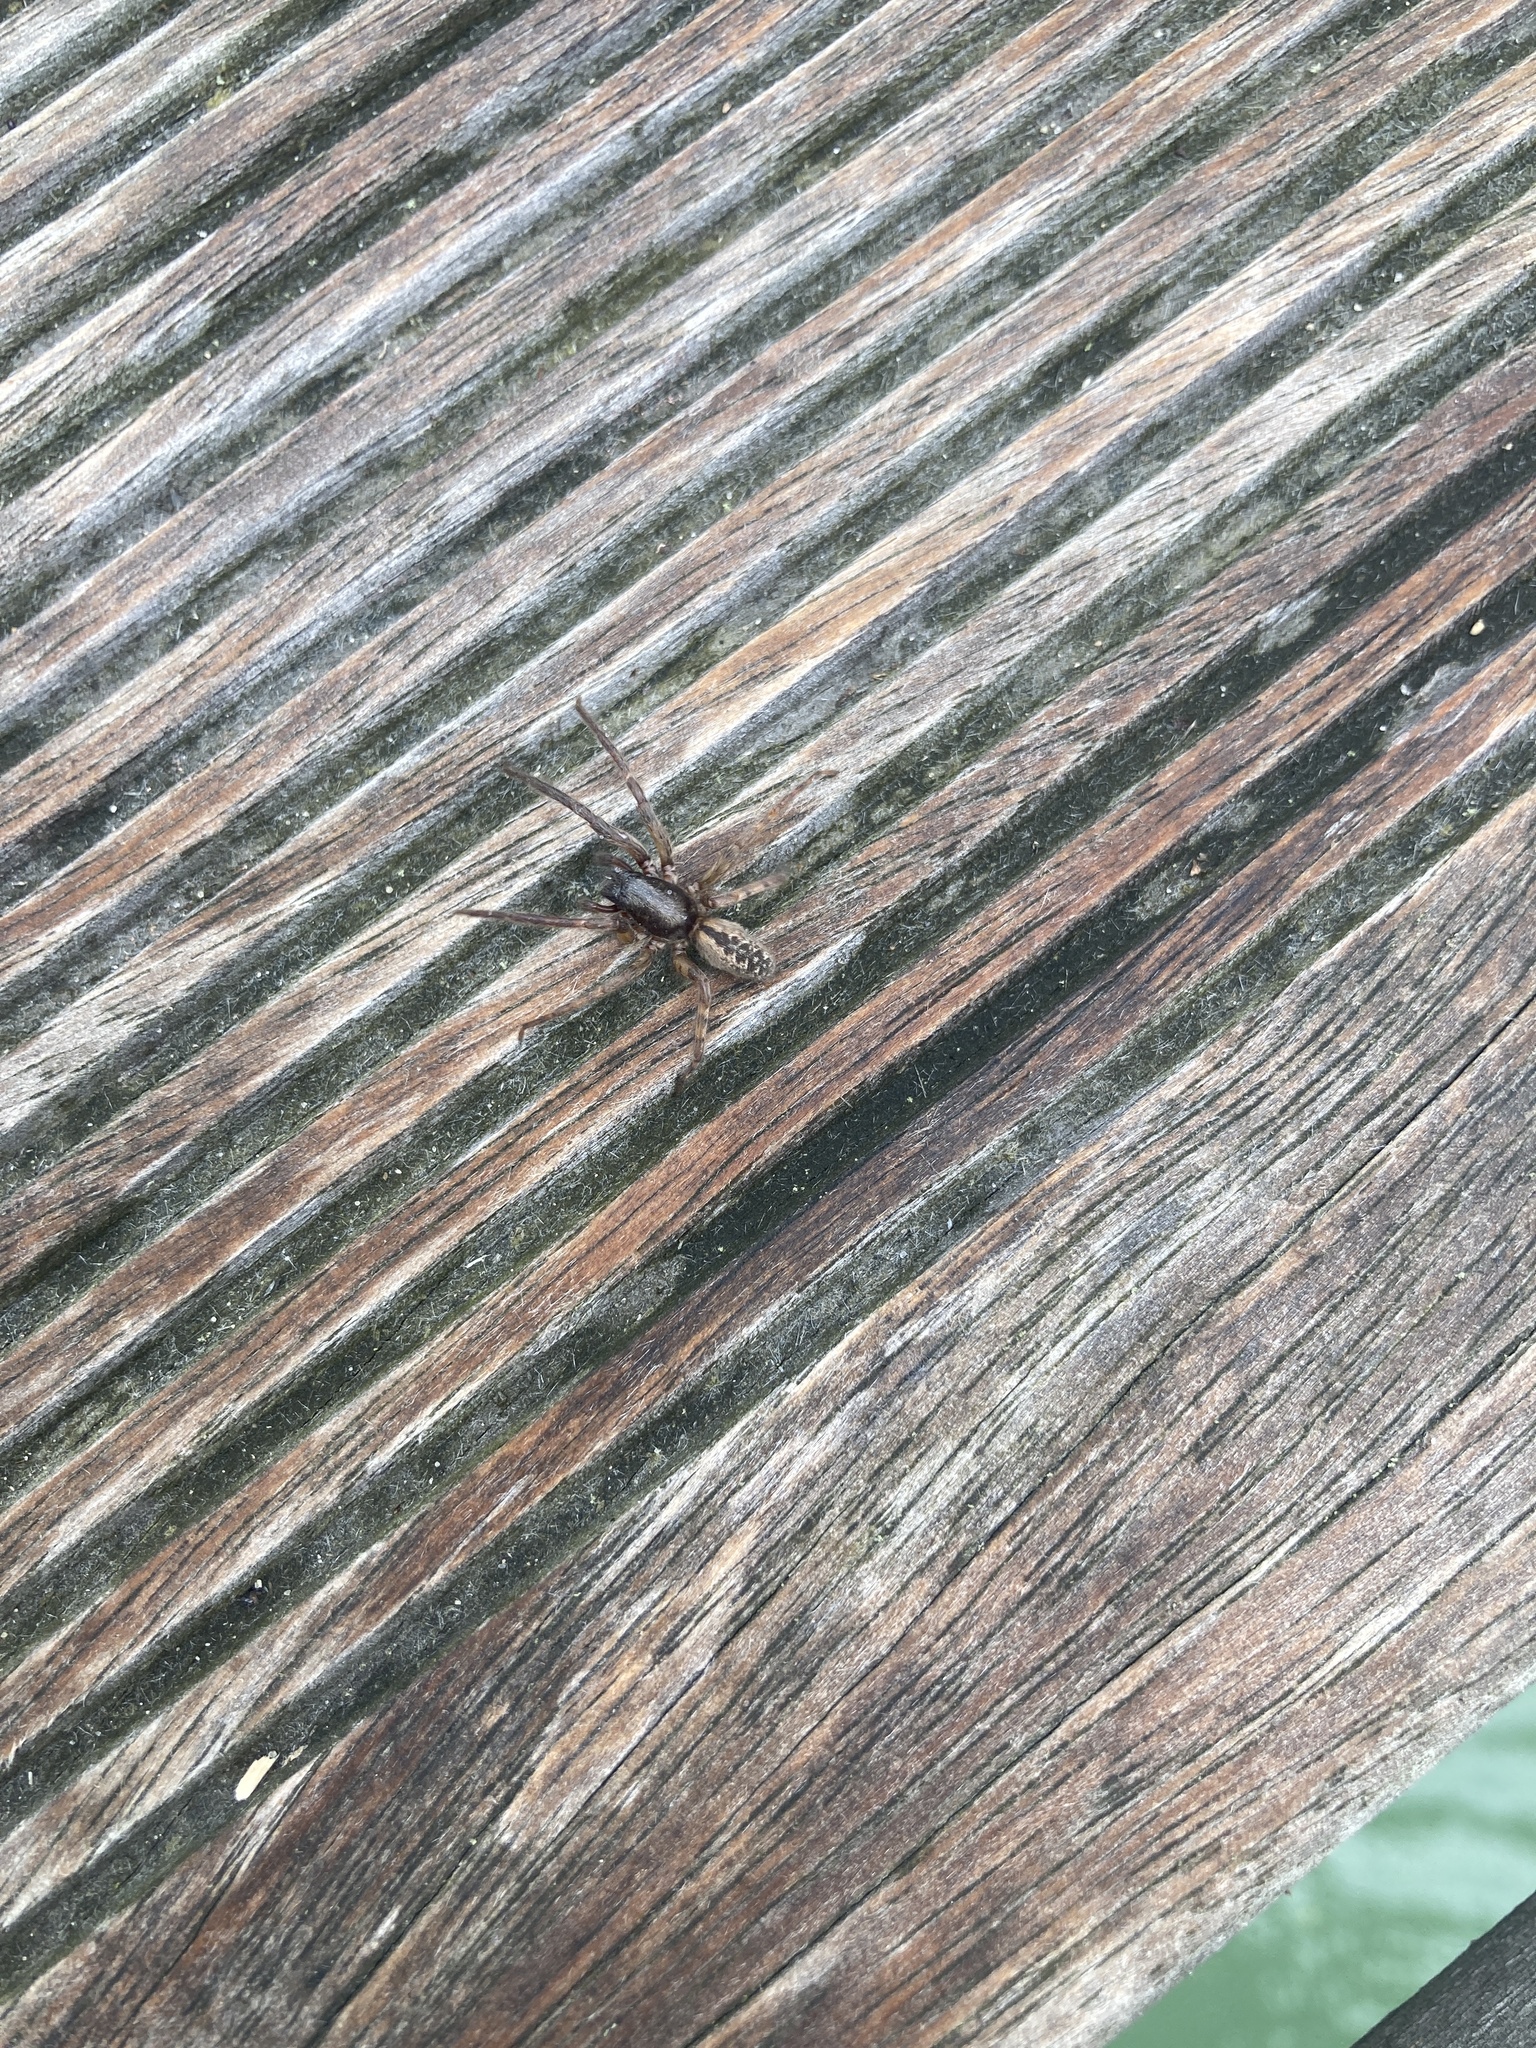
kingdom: Animalia
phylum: Arthropoda
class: Arachnida
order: Araneae
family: Segestriidae
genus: Segestria
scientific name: Segestria bavarica
